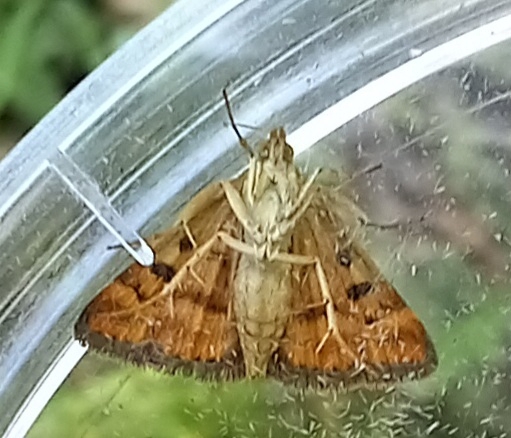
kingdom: Animalia
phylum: Arthropoda
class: Insecta
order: Lepidoptera
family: Crambidae
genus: Pyrausta
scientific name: Pyrausta despicata
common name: Straw-barred pearl
